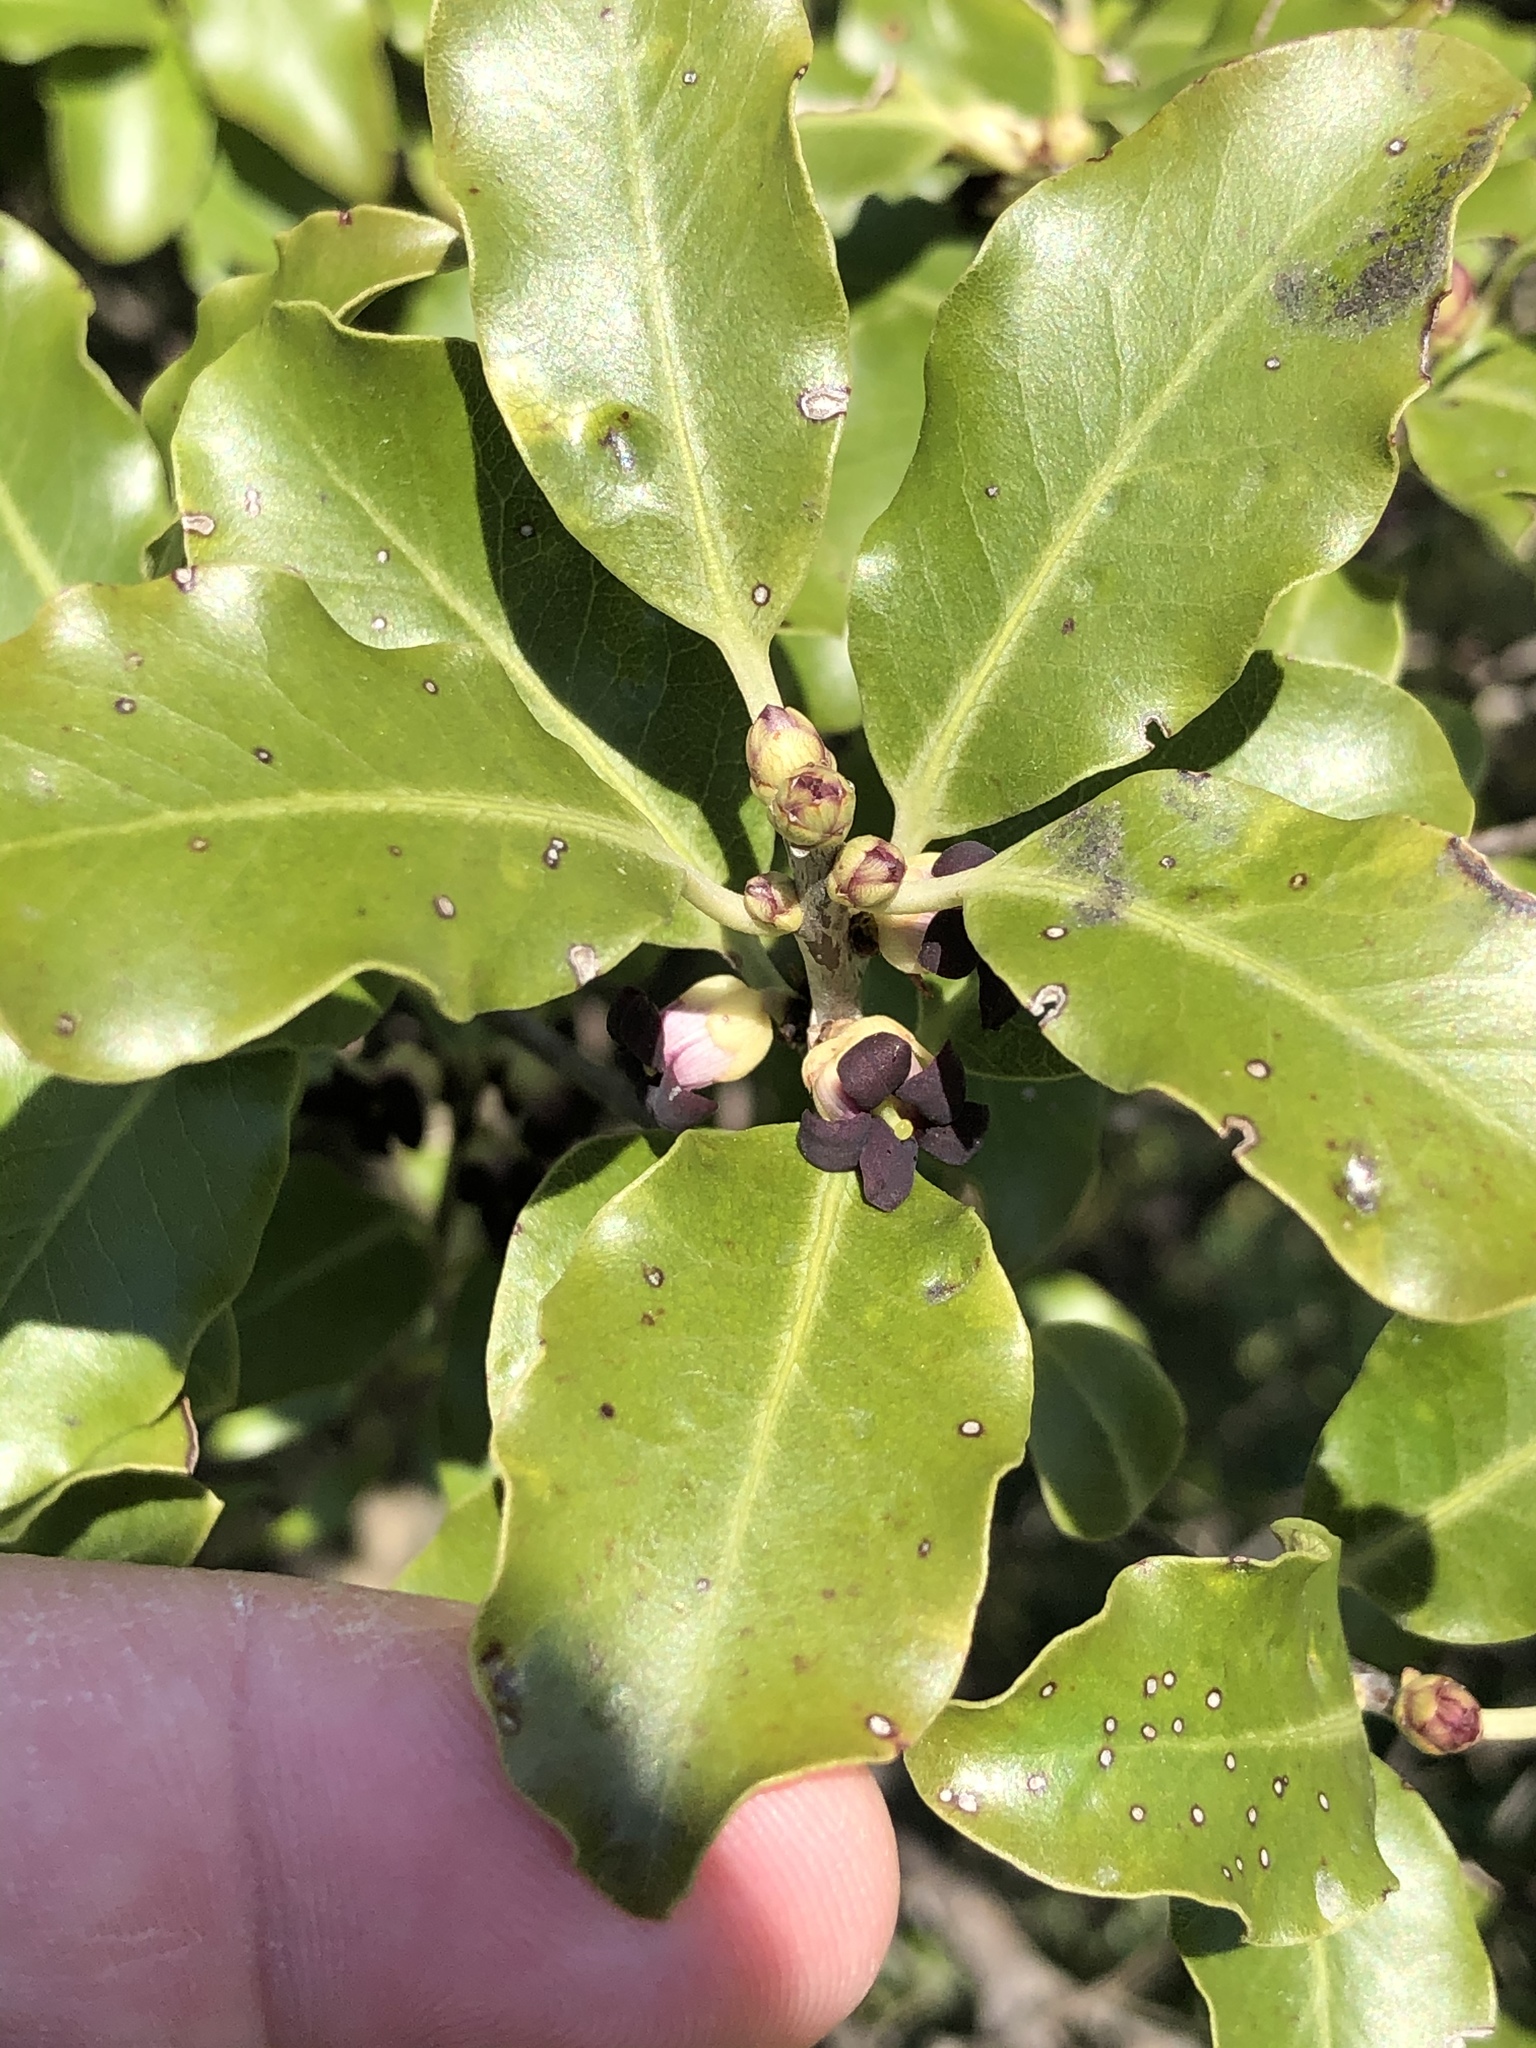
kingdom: Plantae
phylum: Tracheophyta
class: Magnoliopsida
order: Apiales
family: Pittosporaceae
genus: Pittosporum
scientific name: Pittosporum tenuifolium
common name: Kohuhu
